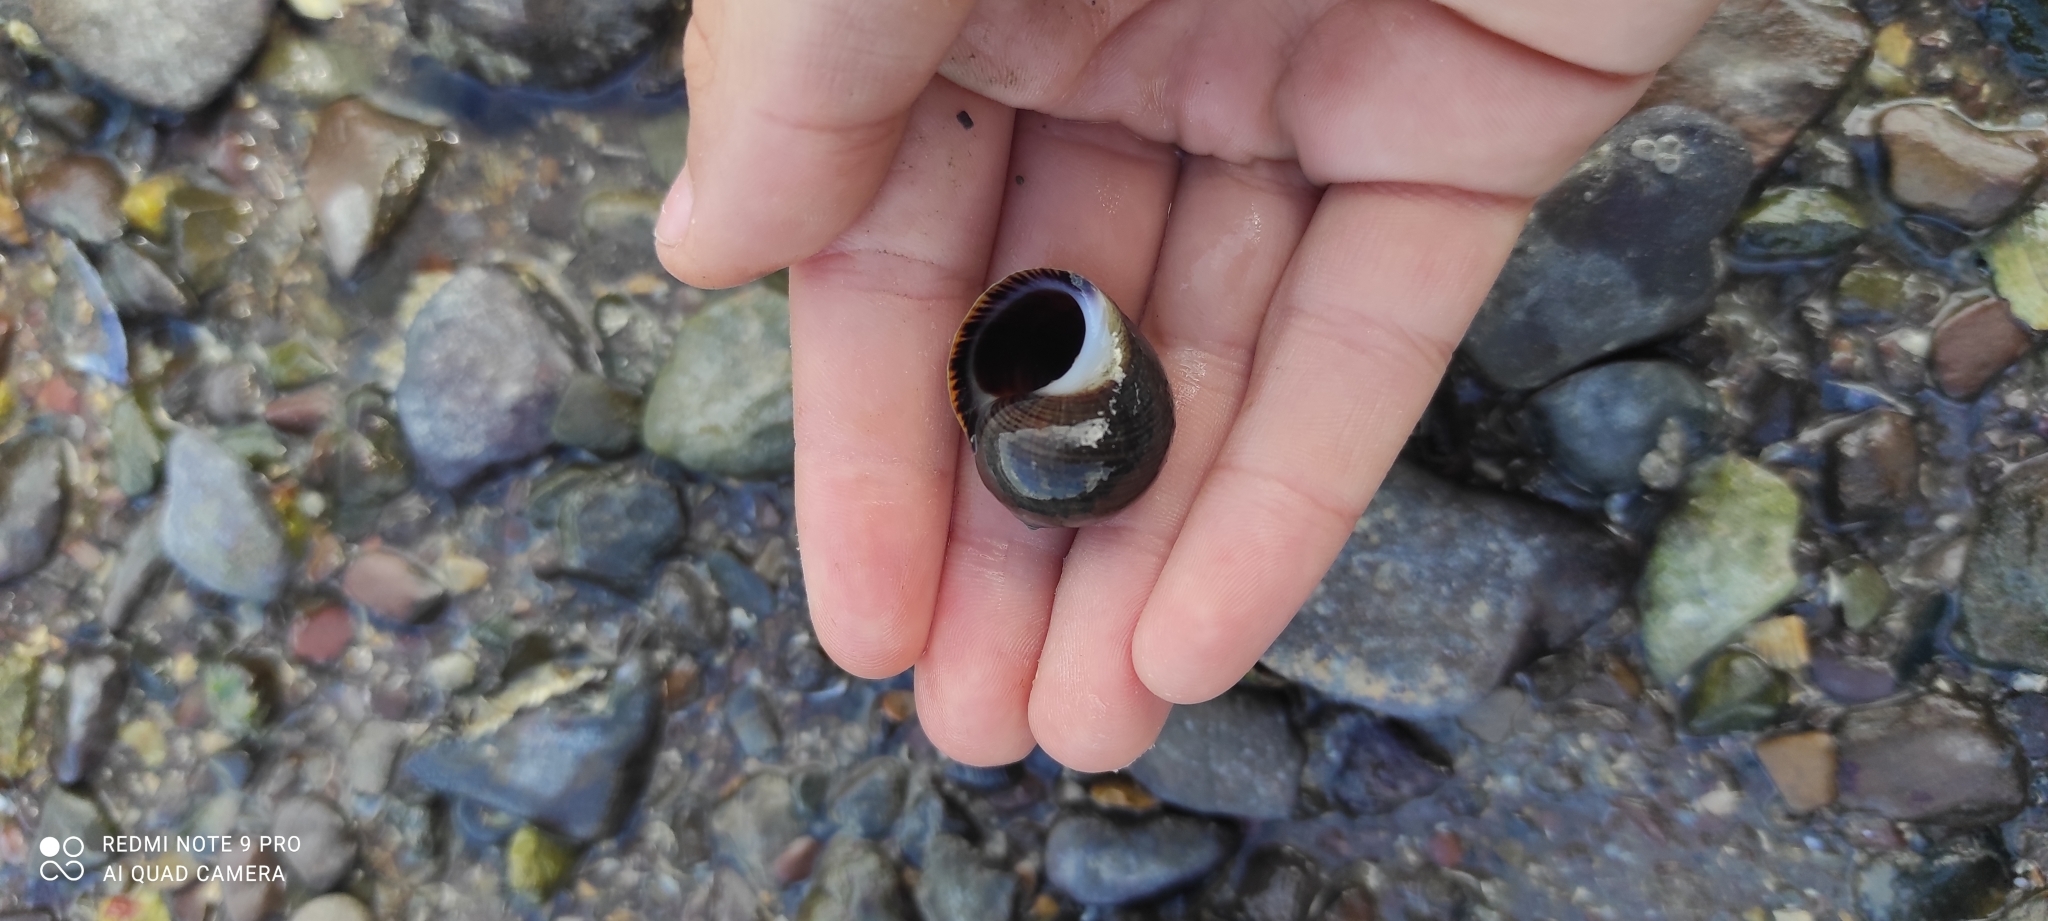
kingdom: Animalia
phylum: Mollusca
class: Gastropoda
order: Littorinimorpha
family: Littorinidae
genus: Littorina
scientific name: Littorina littorea
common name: Common periwinkle
